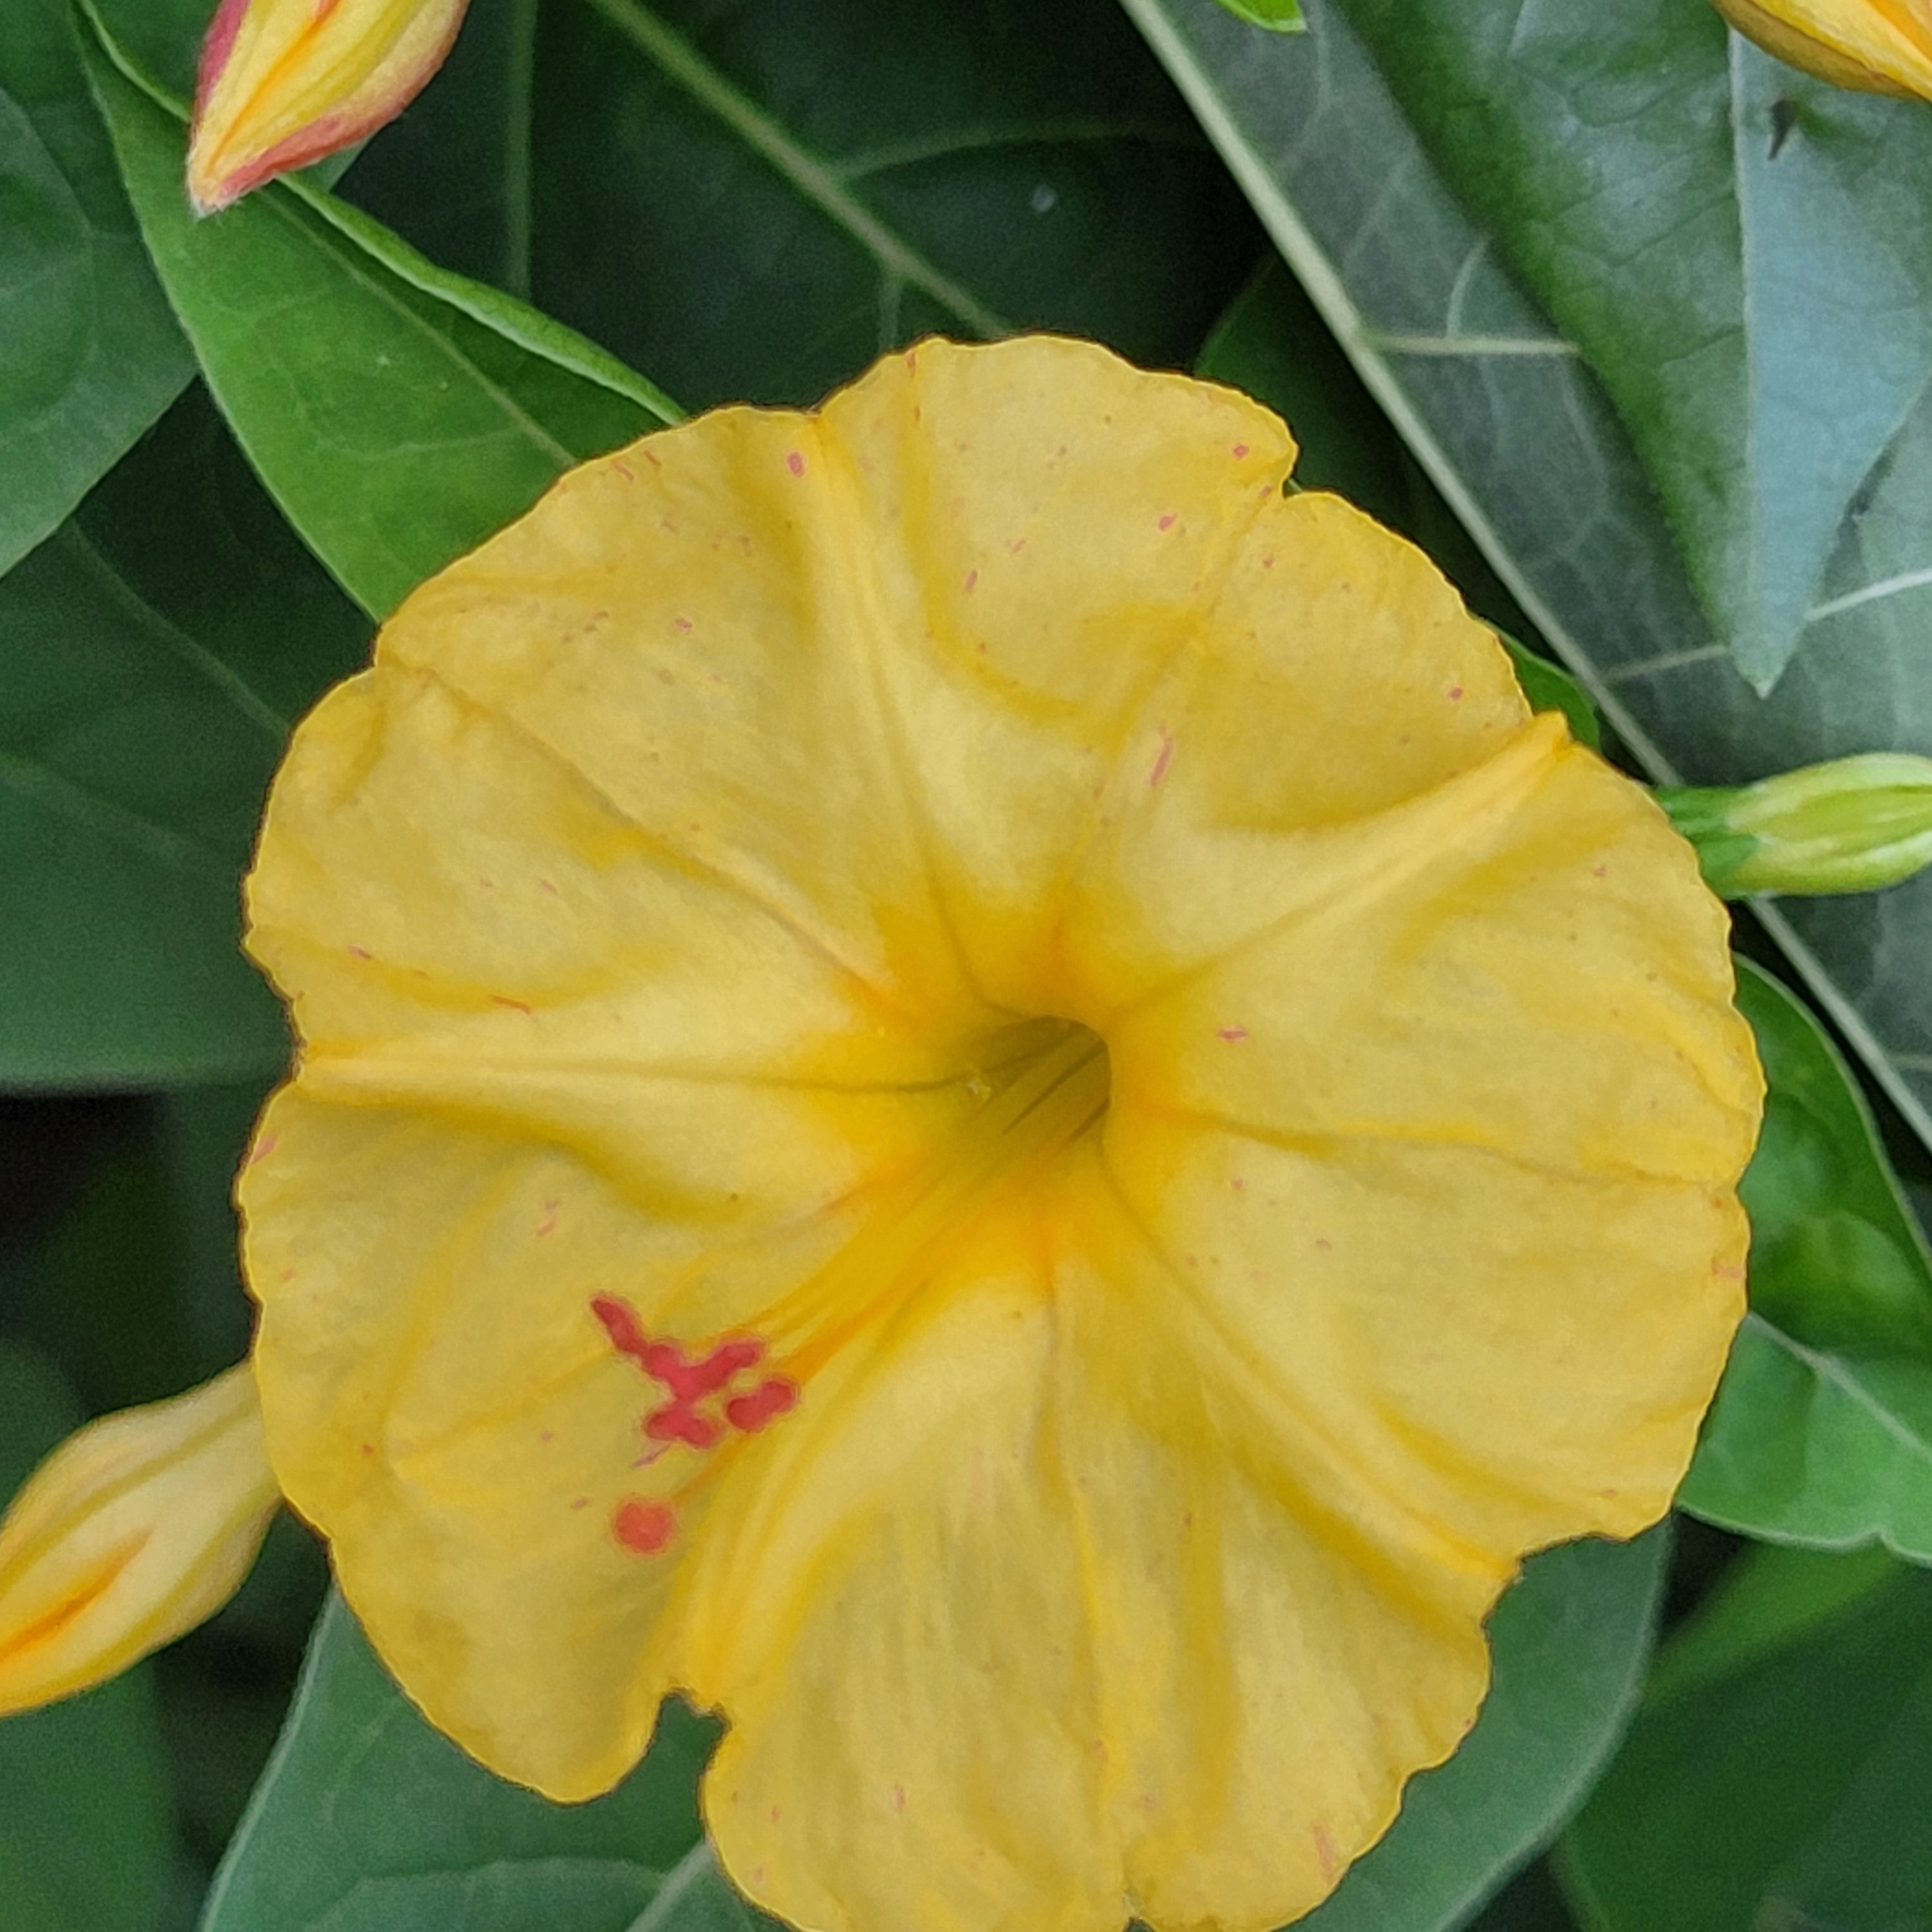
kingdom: Plantae
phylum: Tracheophyta
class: Magnoliopsida
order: Caryophyllales
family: Nyctaginaceae
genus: Mirabilis
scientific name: Mirabilis jalapa
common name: Marvel-of-peru
